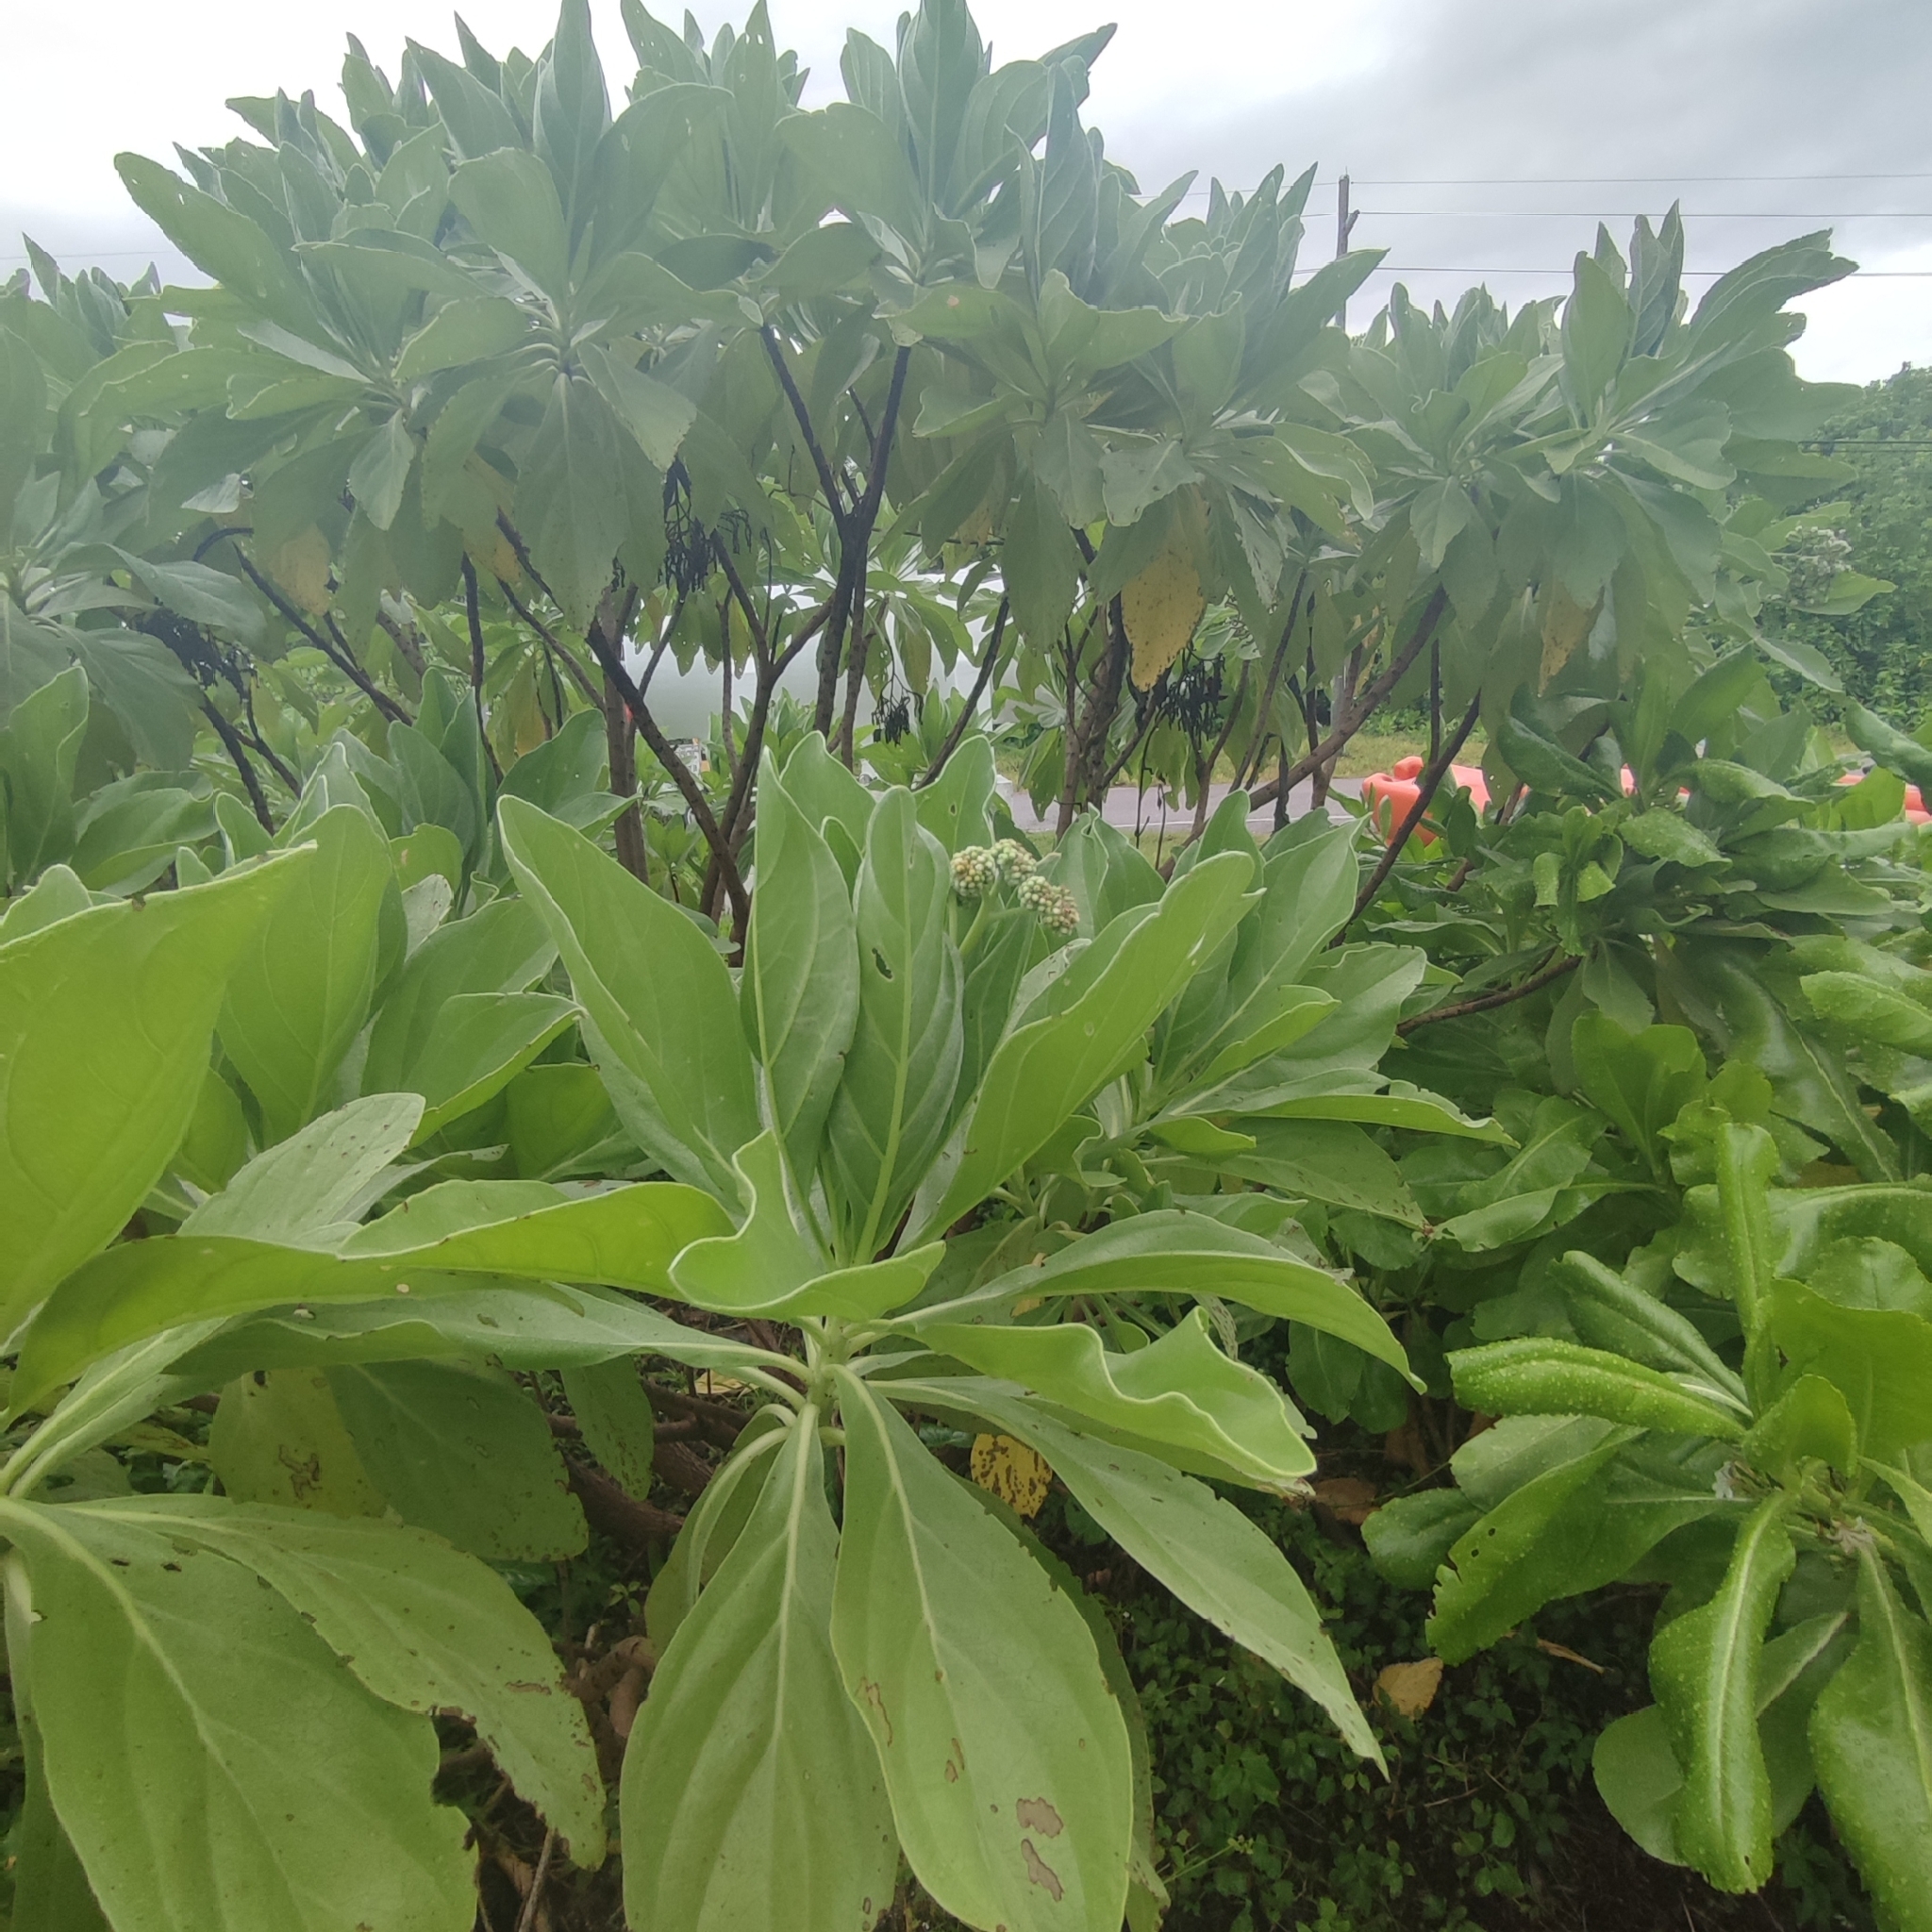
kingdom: Plantae
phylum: Tracheophyta
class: Magnoliopsida
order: Boraginales
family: Heliotropiaceae
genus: Heliotropium
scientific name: Heliotropium velutinum
